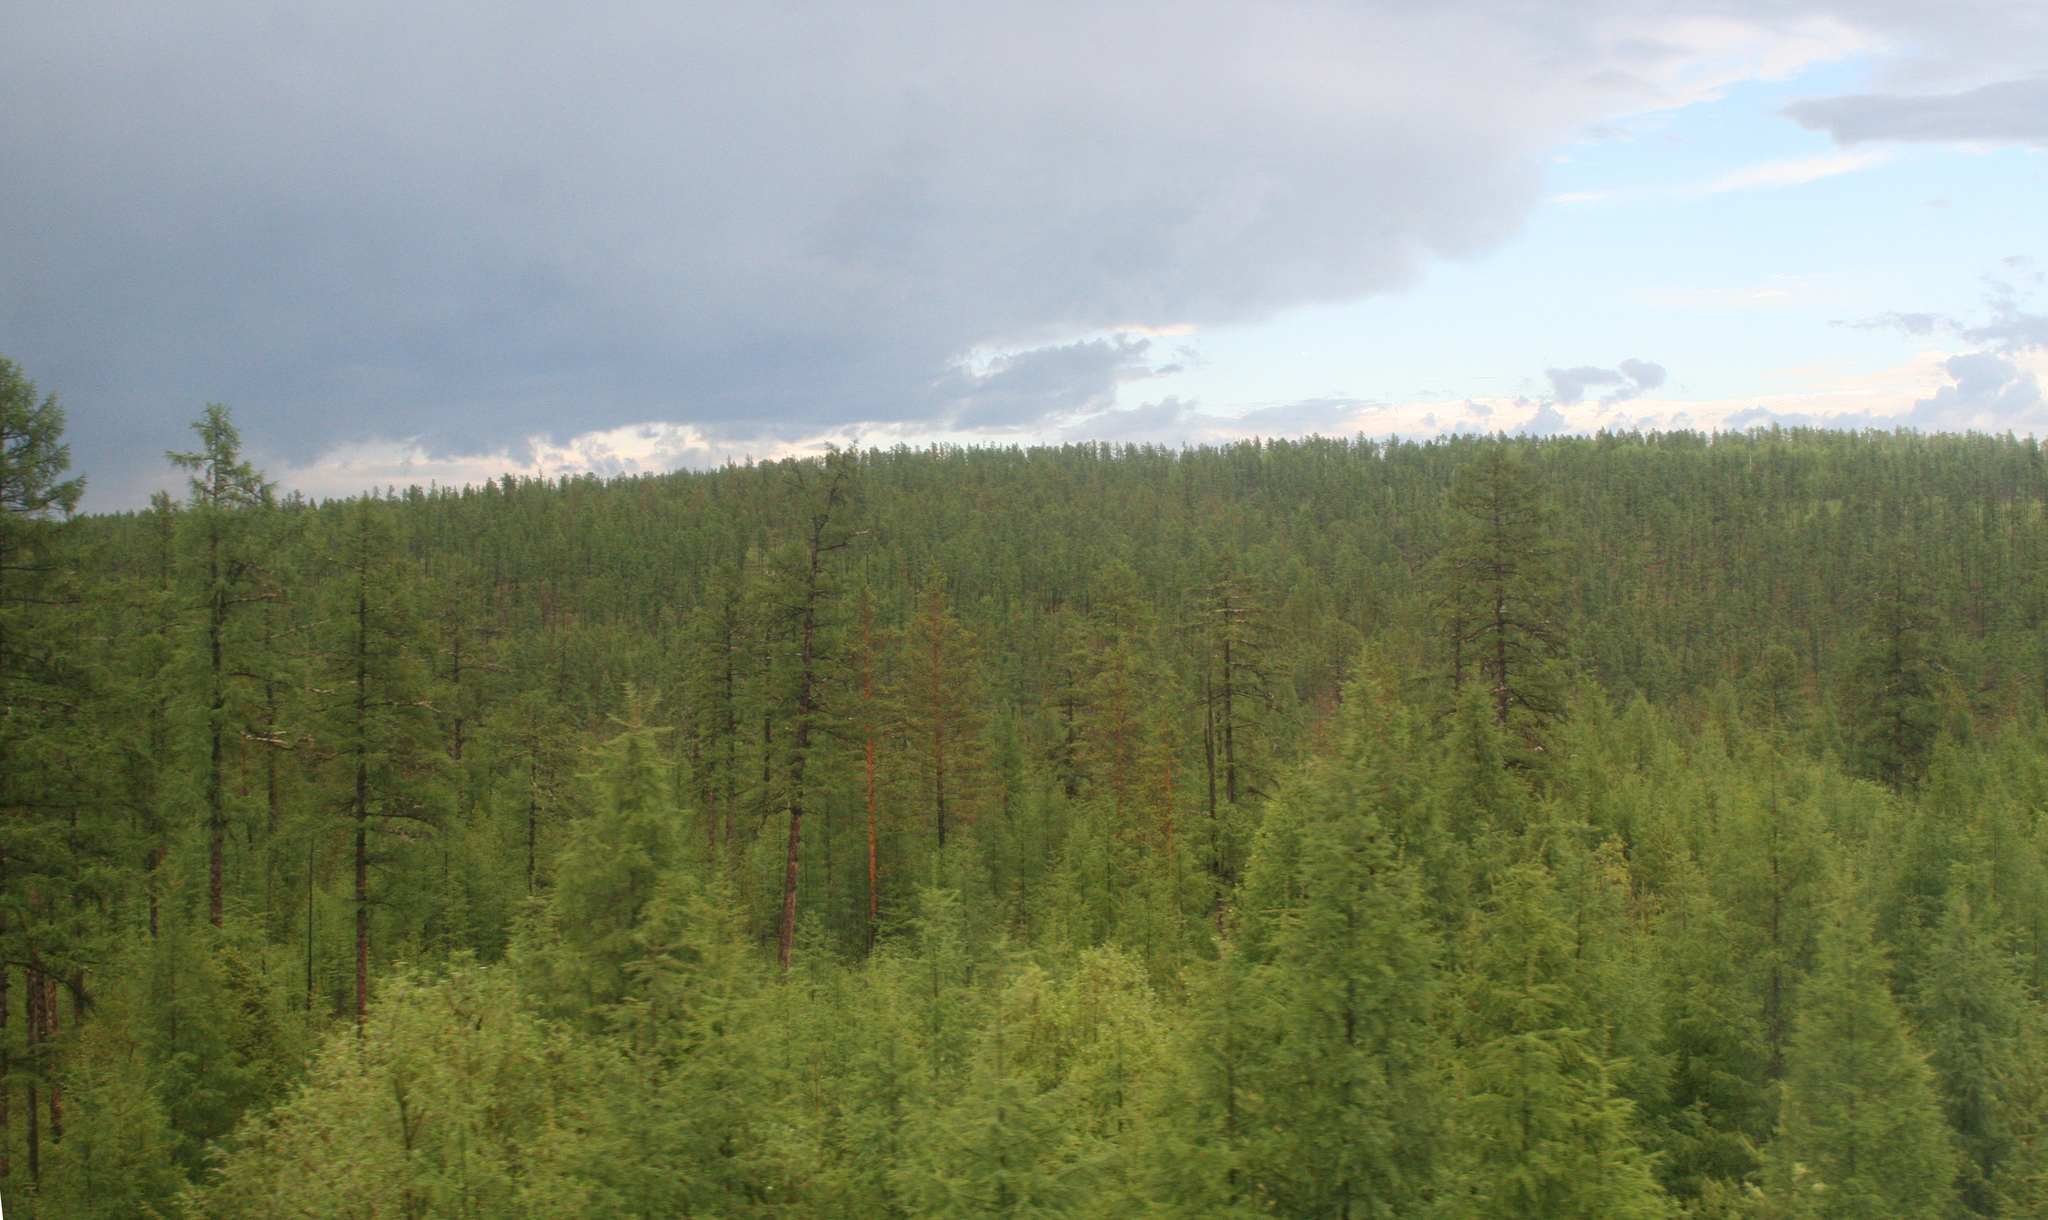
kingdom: Plantae
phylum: Tracheophyta
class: Pinopsida
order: Pinales
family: Pinaceae
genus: Larix
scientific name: Larix gmelinii
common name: Dahurian larch
